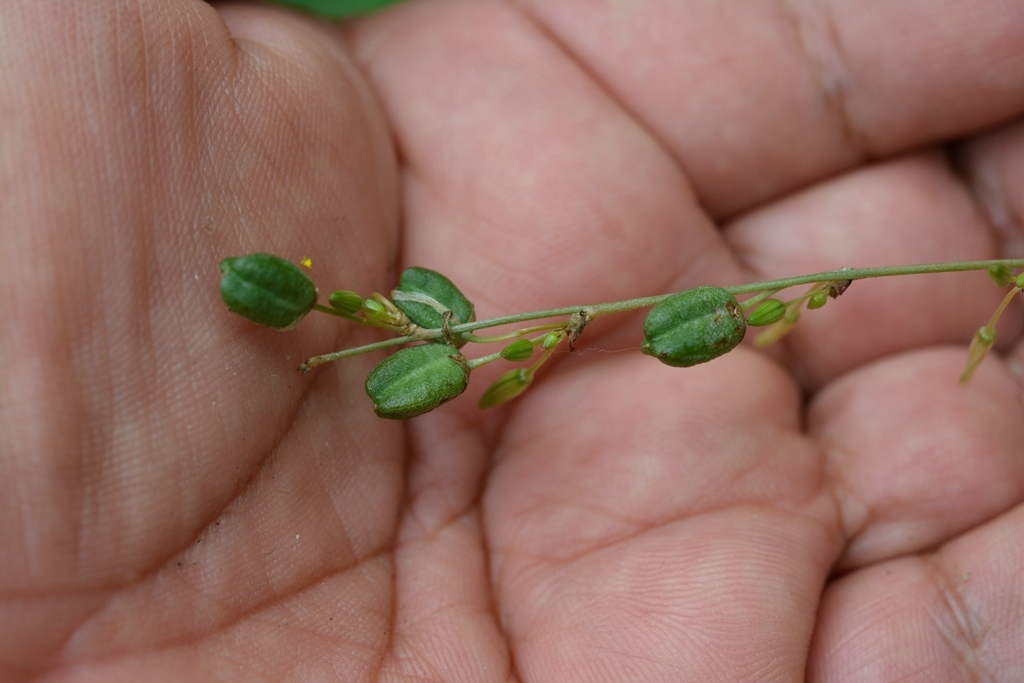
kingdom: Plantae
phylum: Tracheophyta
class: Liliopsida
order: Asparagales
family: Asparagaceae
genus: Echeandia
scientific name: Echeandia parviflora
